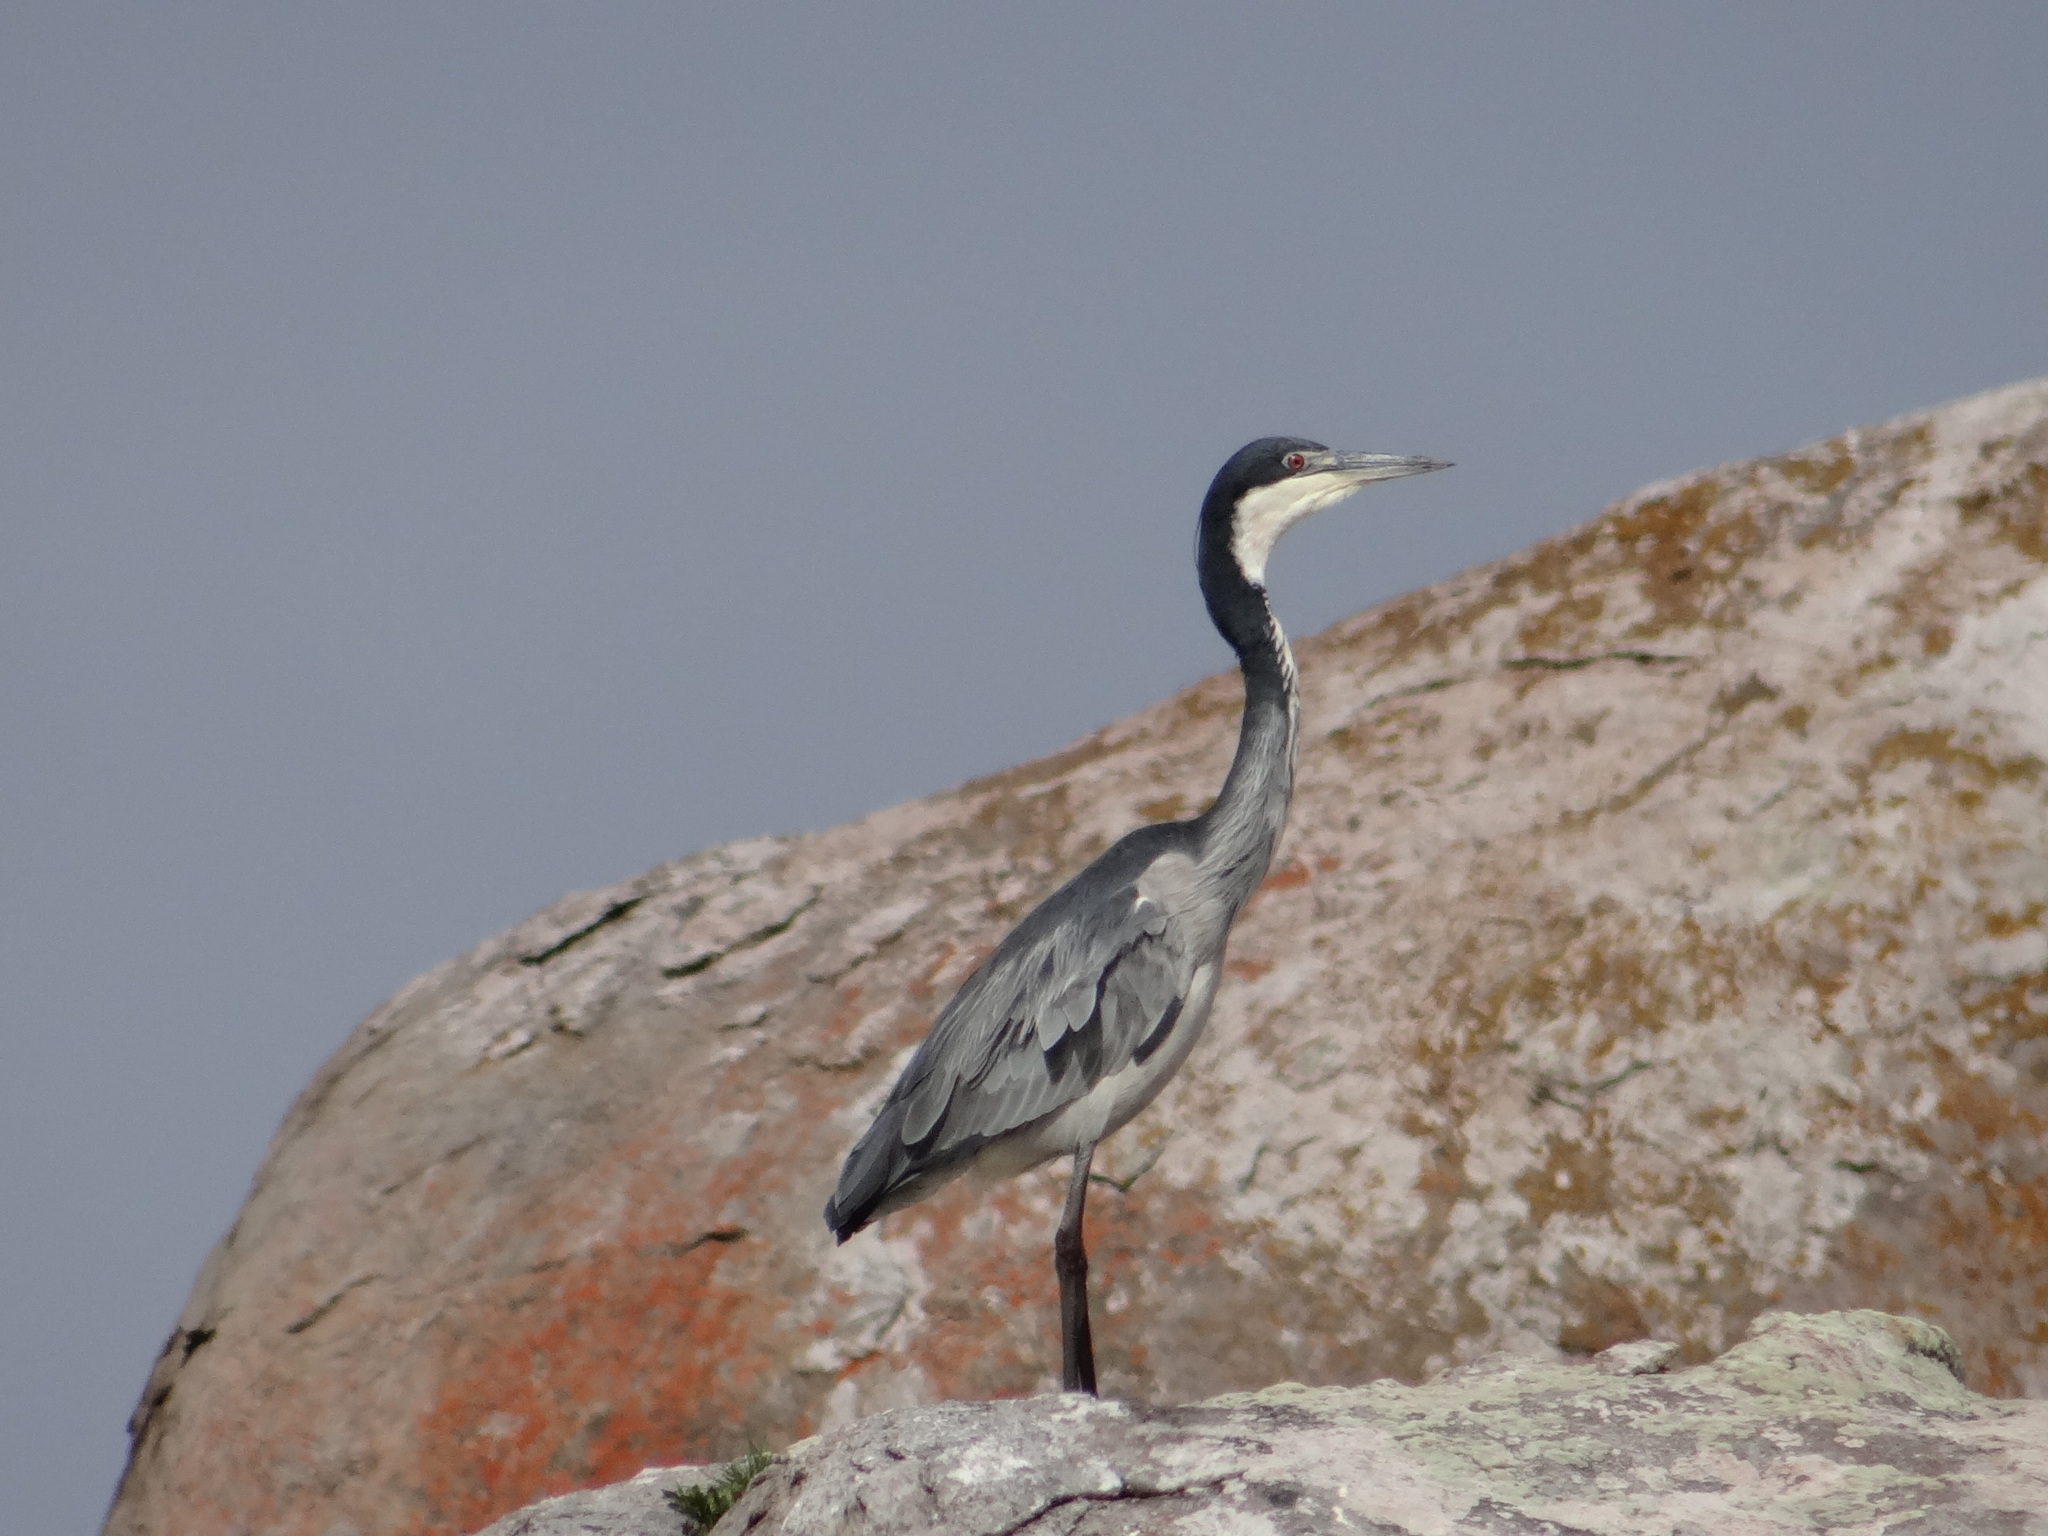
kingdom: Animalia
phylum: Chordata
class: Aves
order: Pelecaniformes
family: Ardeidae
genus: Ardea
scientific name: Ardea melanocephala
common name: Black-headed heron
